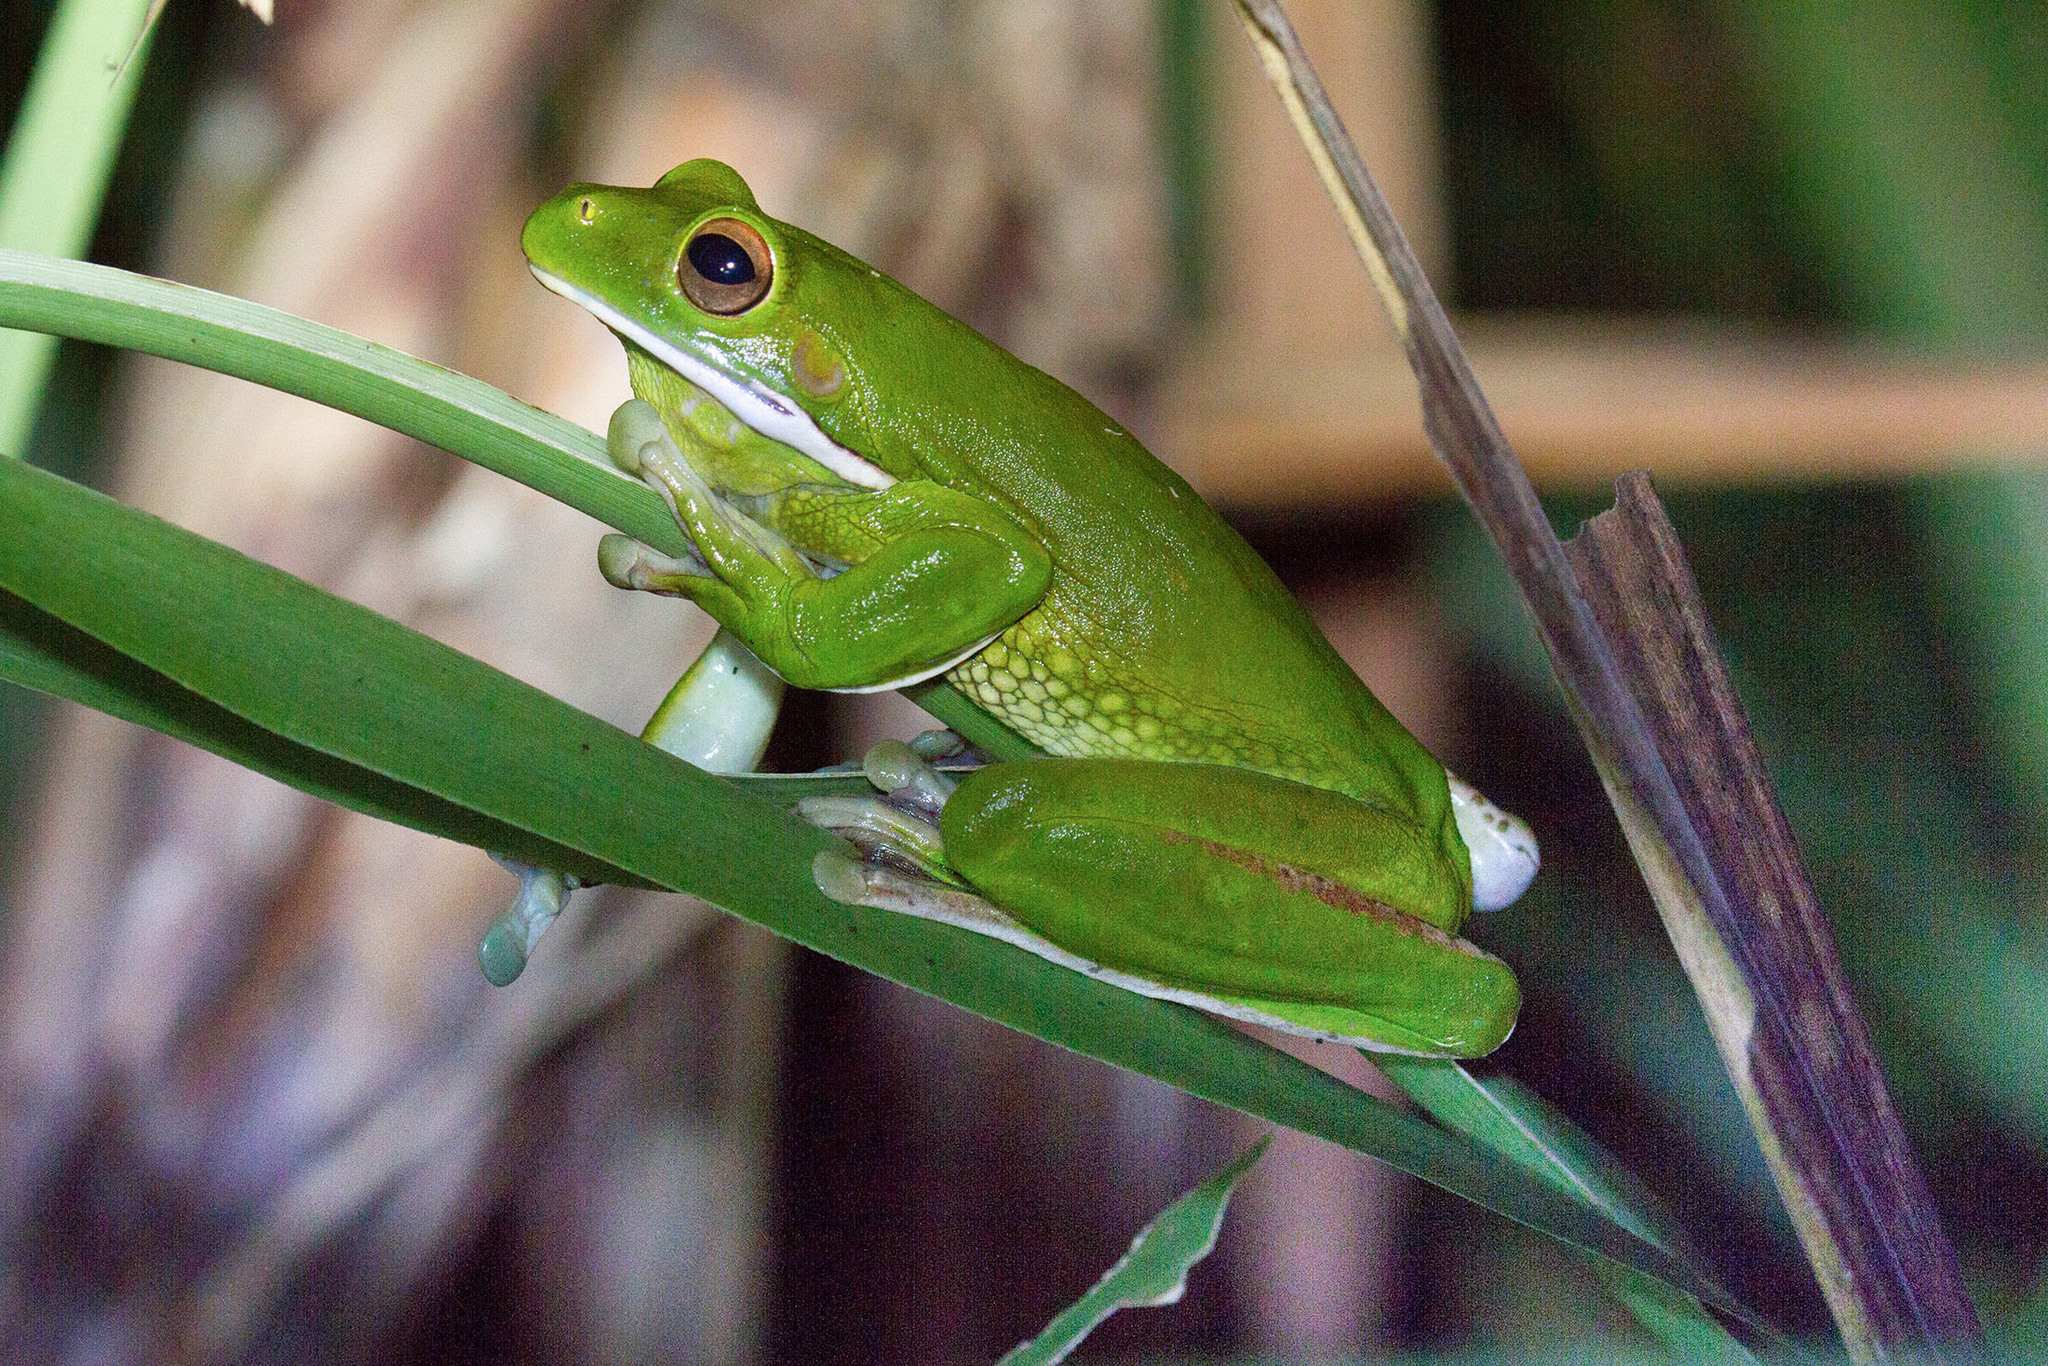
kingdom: Animalia
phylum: Chordata
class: Amphibia
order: Anura
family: Pelodryadidae
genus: Nyctimystes
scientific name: Nyctimystes infrafrenatus
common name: Australian giant treefrog
